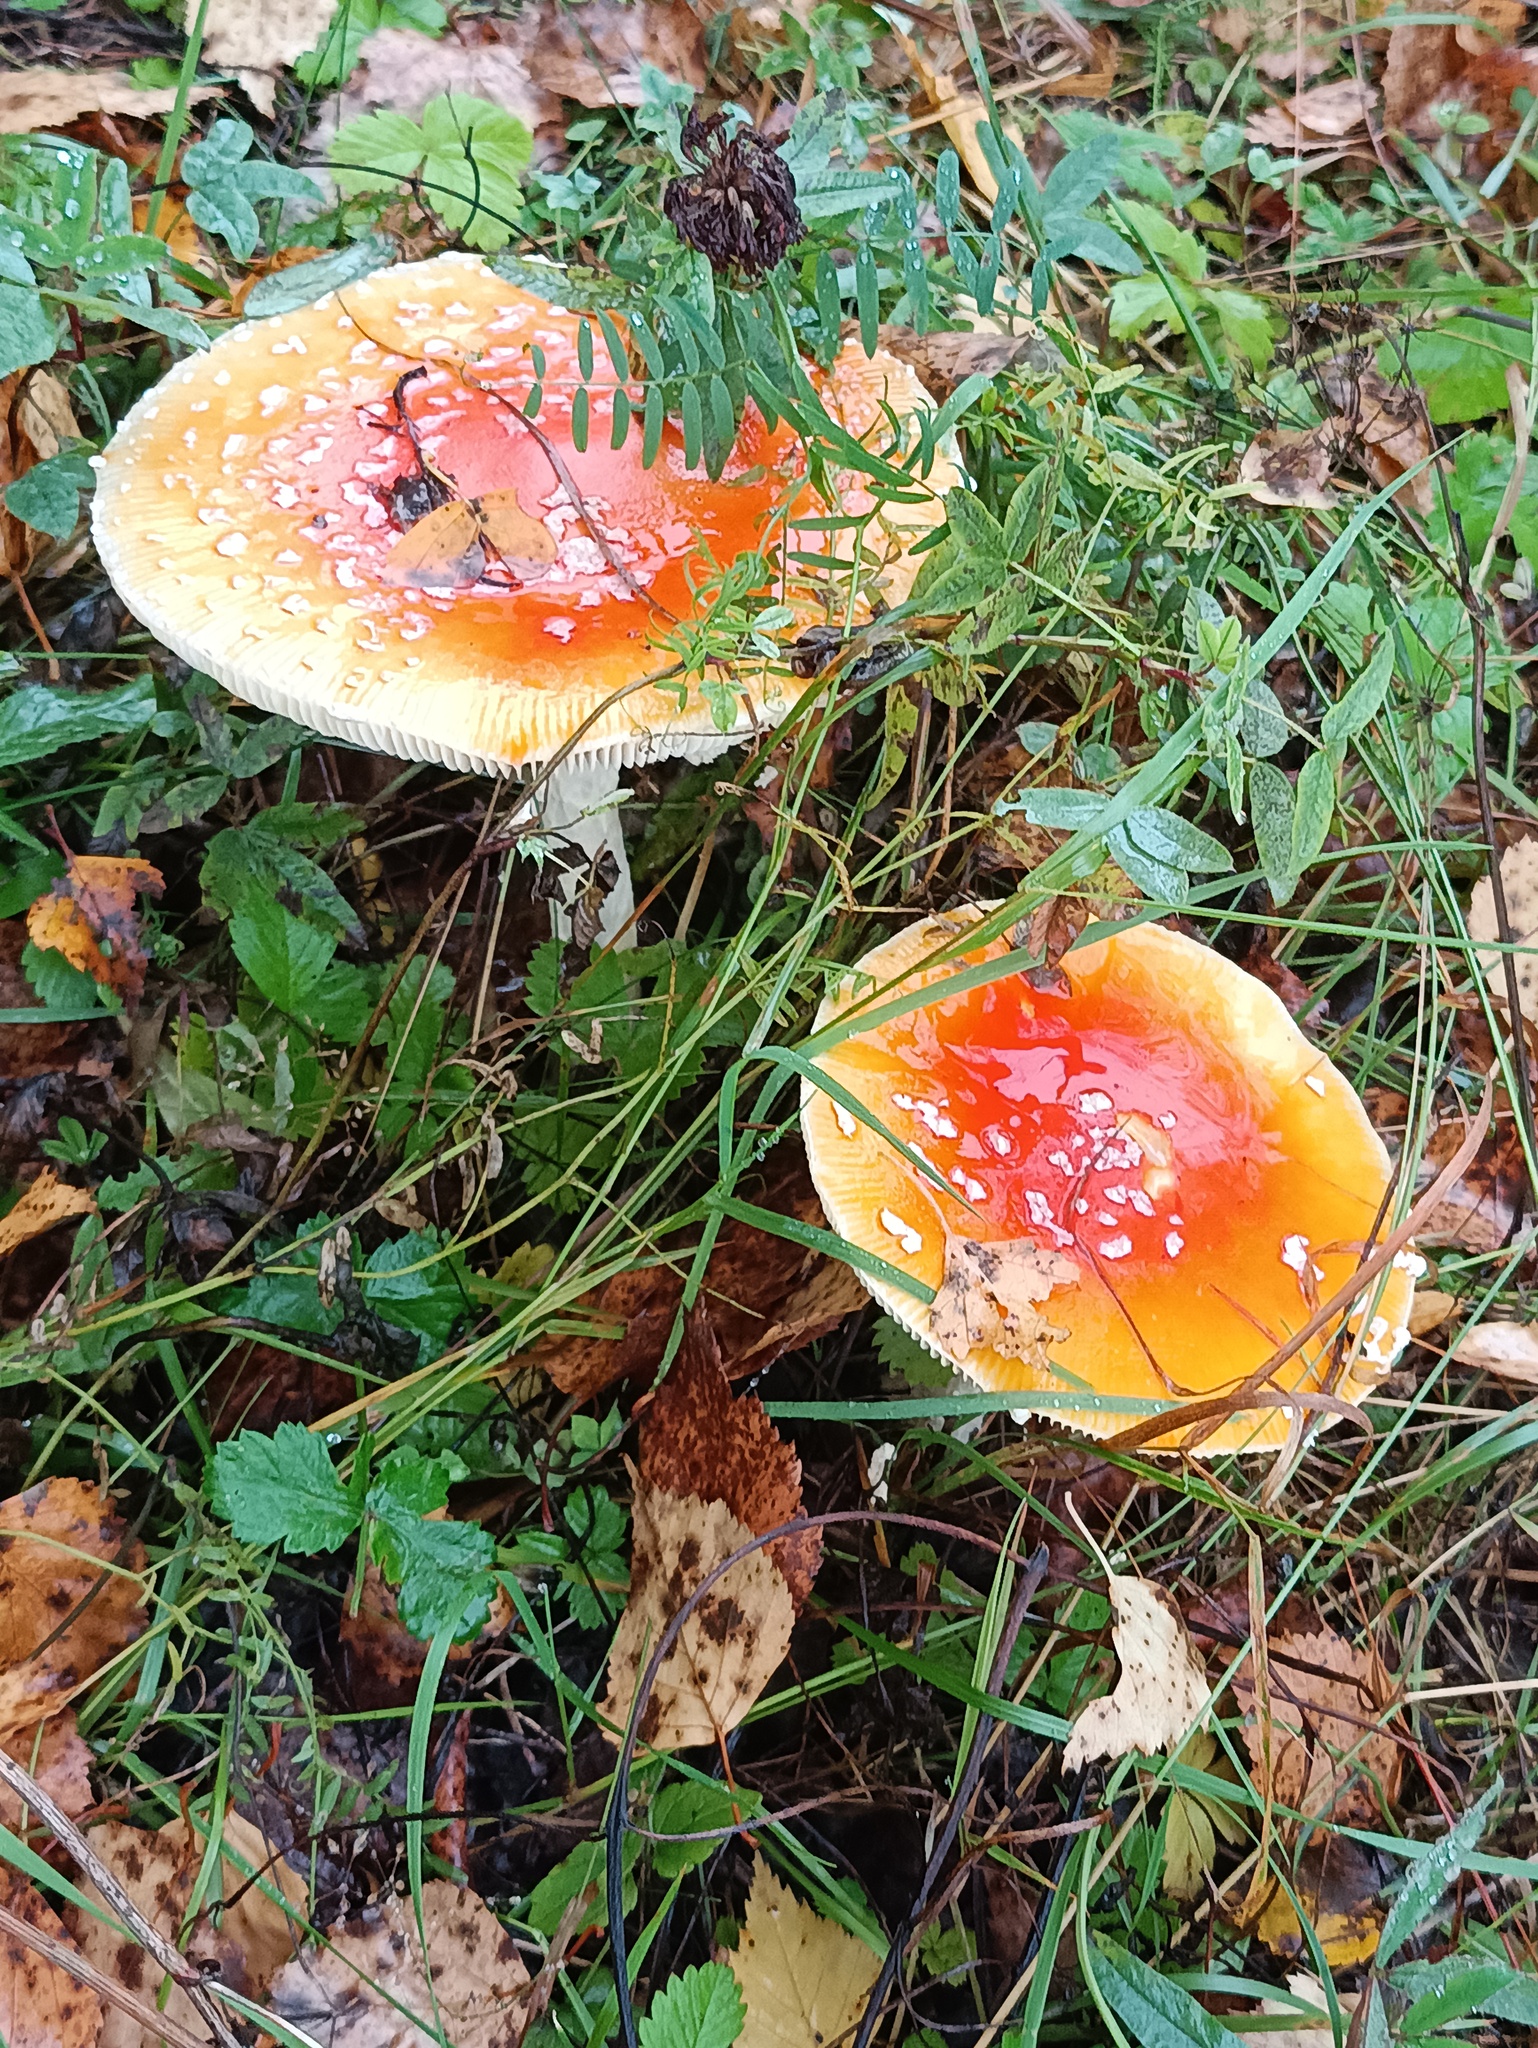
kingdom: Fungi
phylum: Basidiomycota
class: Agaricomycetes
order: Agaricales
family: Amanitaceae
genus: Amanita
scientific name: Amanita muscaria
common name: Fly agaric
